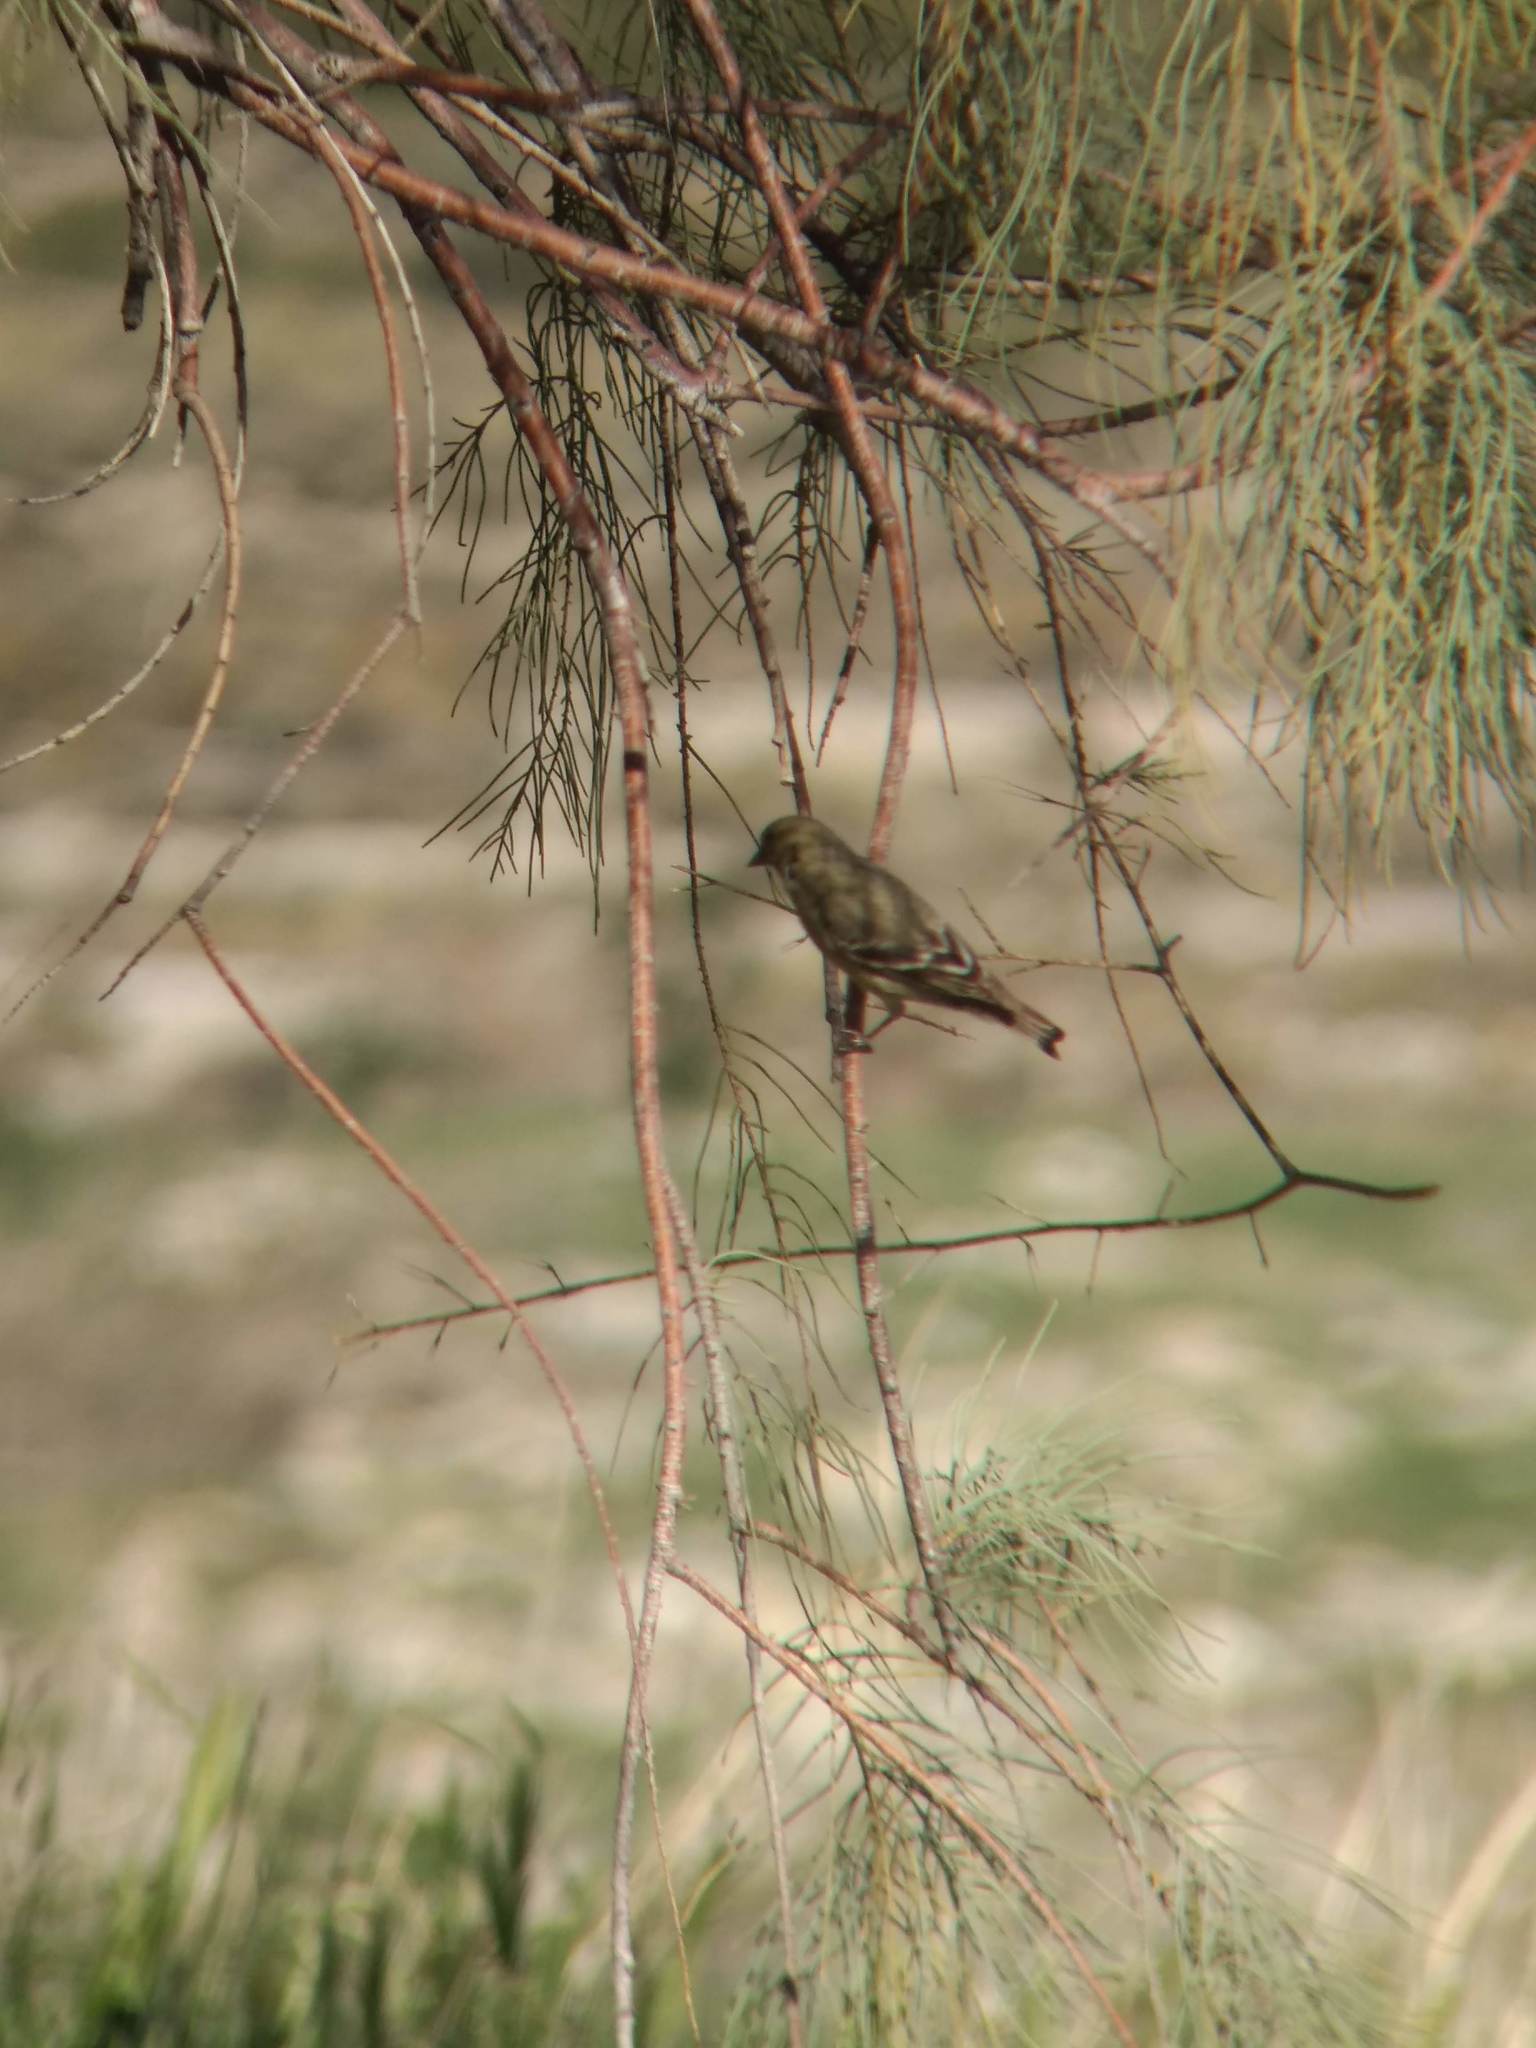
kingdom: Animalia
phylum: Chordata
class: Aves
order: Passeriformes
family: Fringillidae
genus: Spinus
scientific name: Spinus psaltria
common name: Lesser goldfinch
